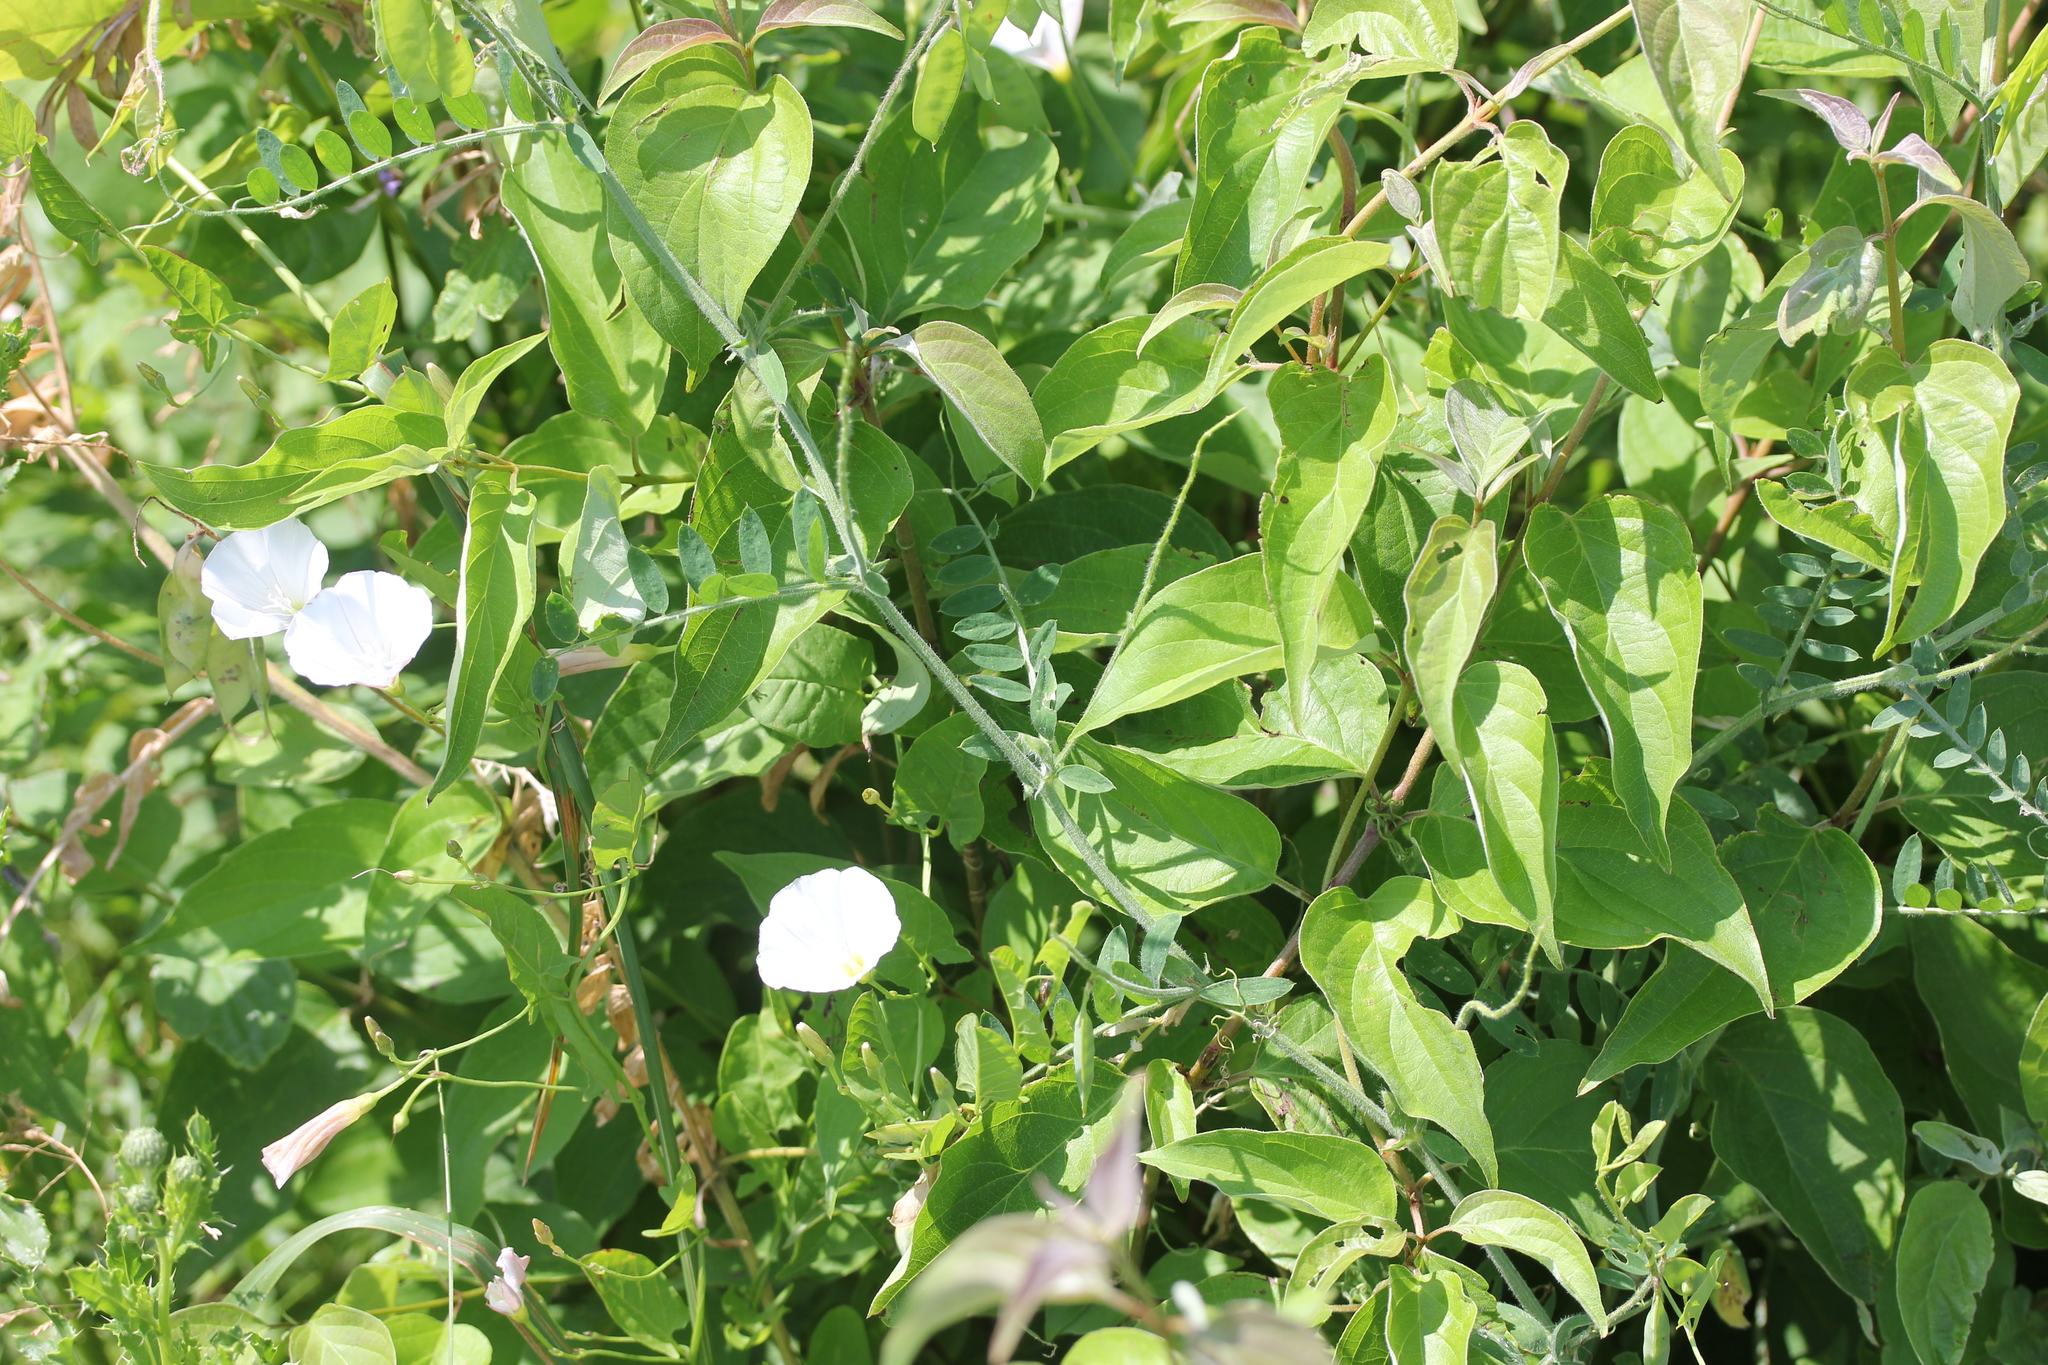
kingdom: Plantae
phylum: Tracheophyta
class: Magnoliopsida
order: Fabales
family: Fabaceae
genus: Vicia
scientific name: Vicia villosa
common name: Fodder vetch
